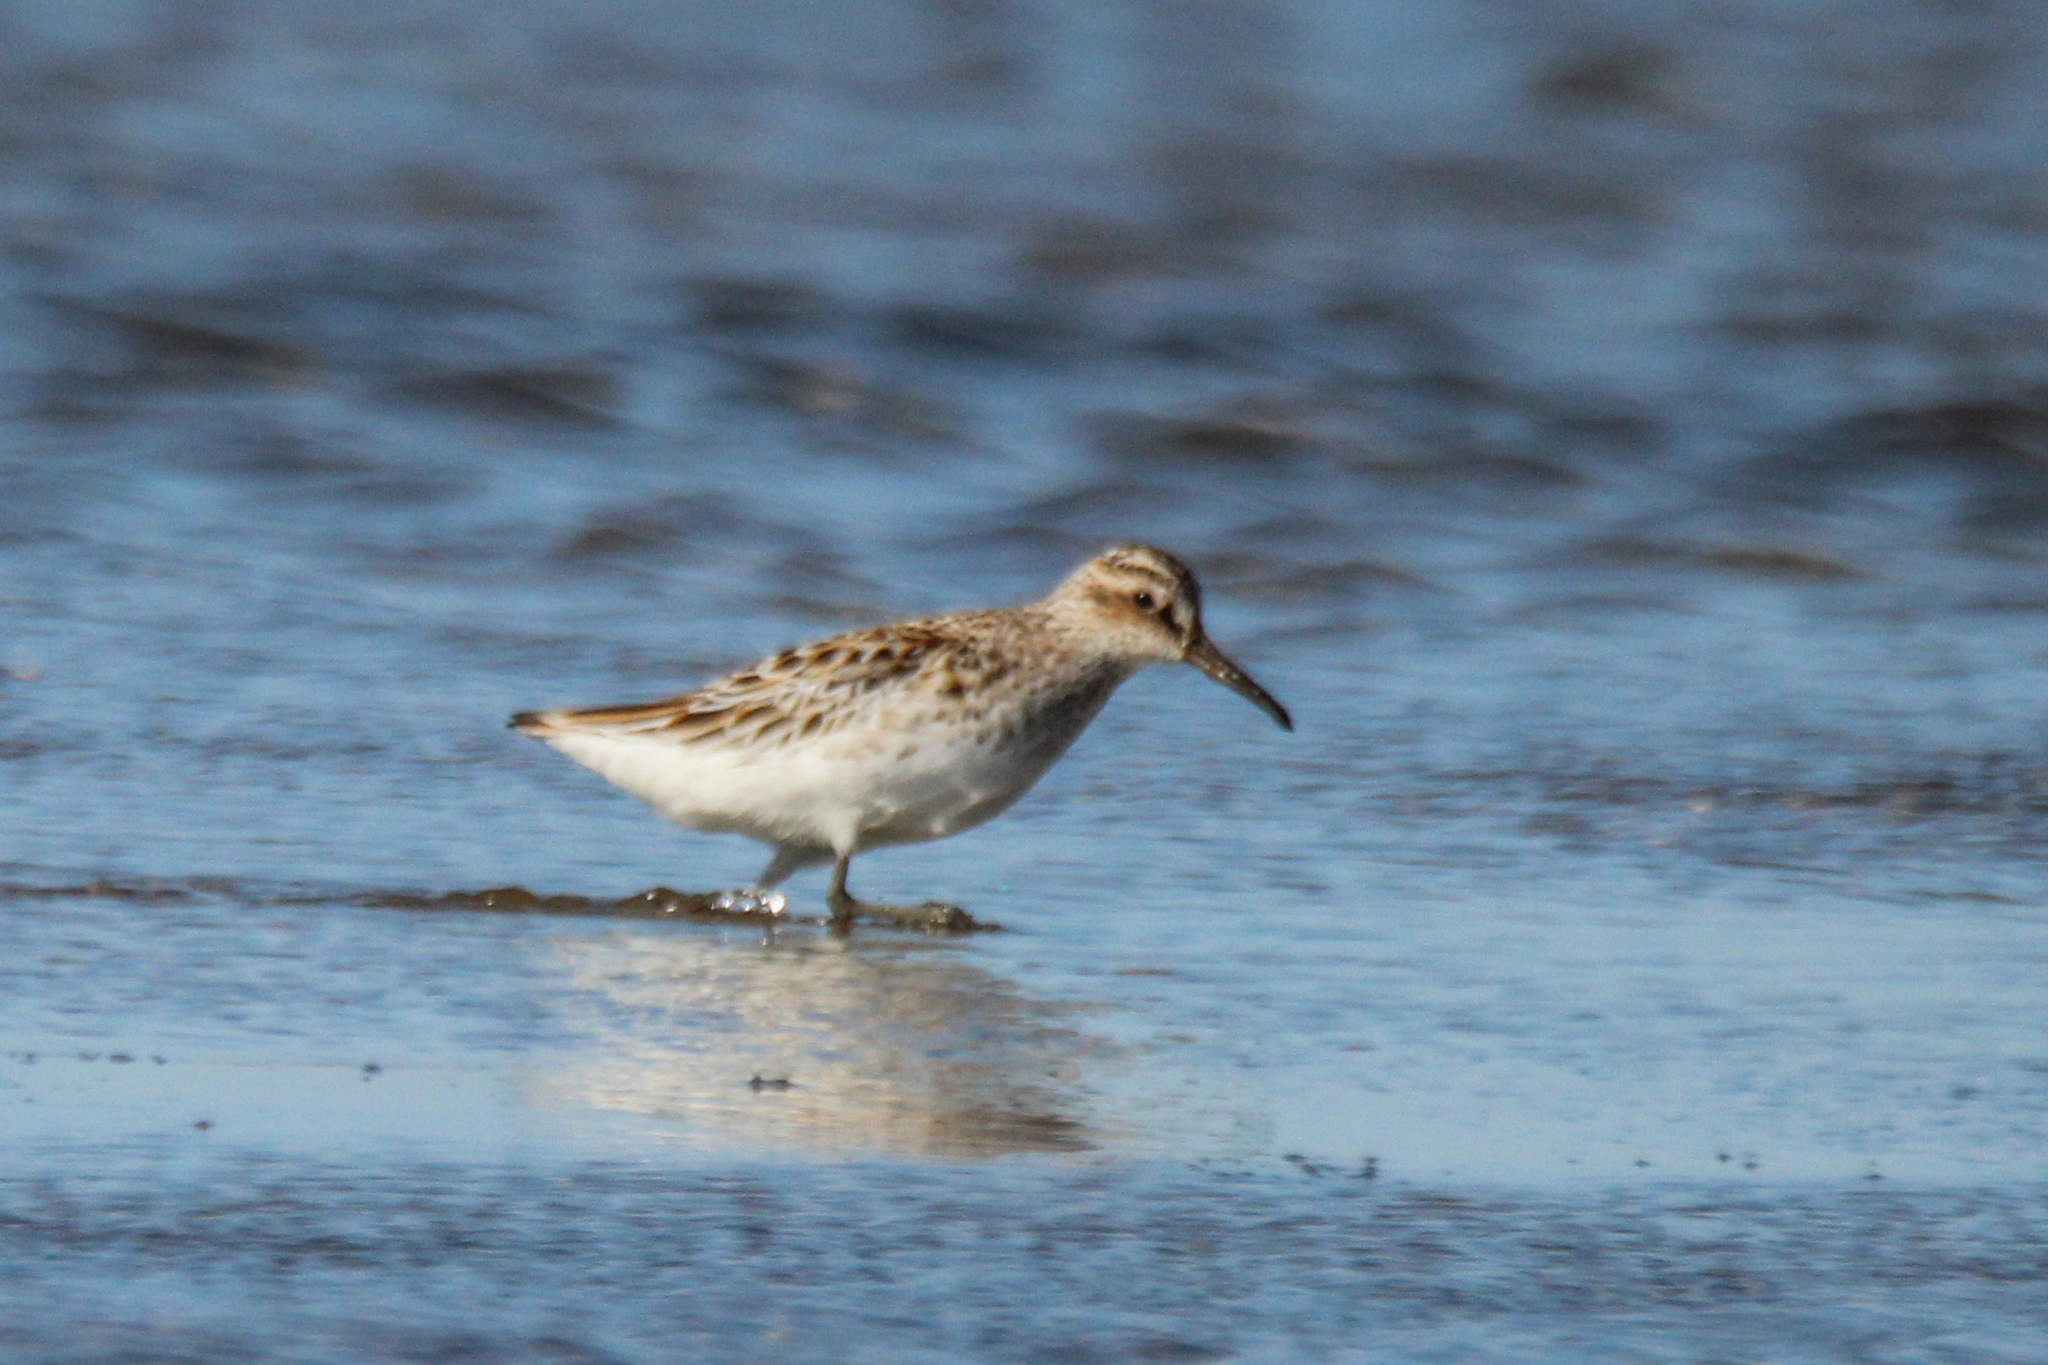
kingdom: Animalia
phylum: Chordata
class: Aves
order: Charadriiformes
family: Scolopacidae
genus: Calidris
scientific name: Calidris falcinellus
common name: Broad-billed sandpiper
